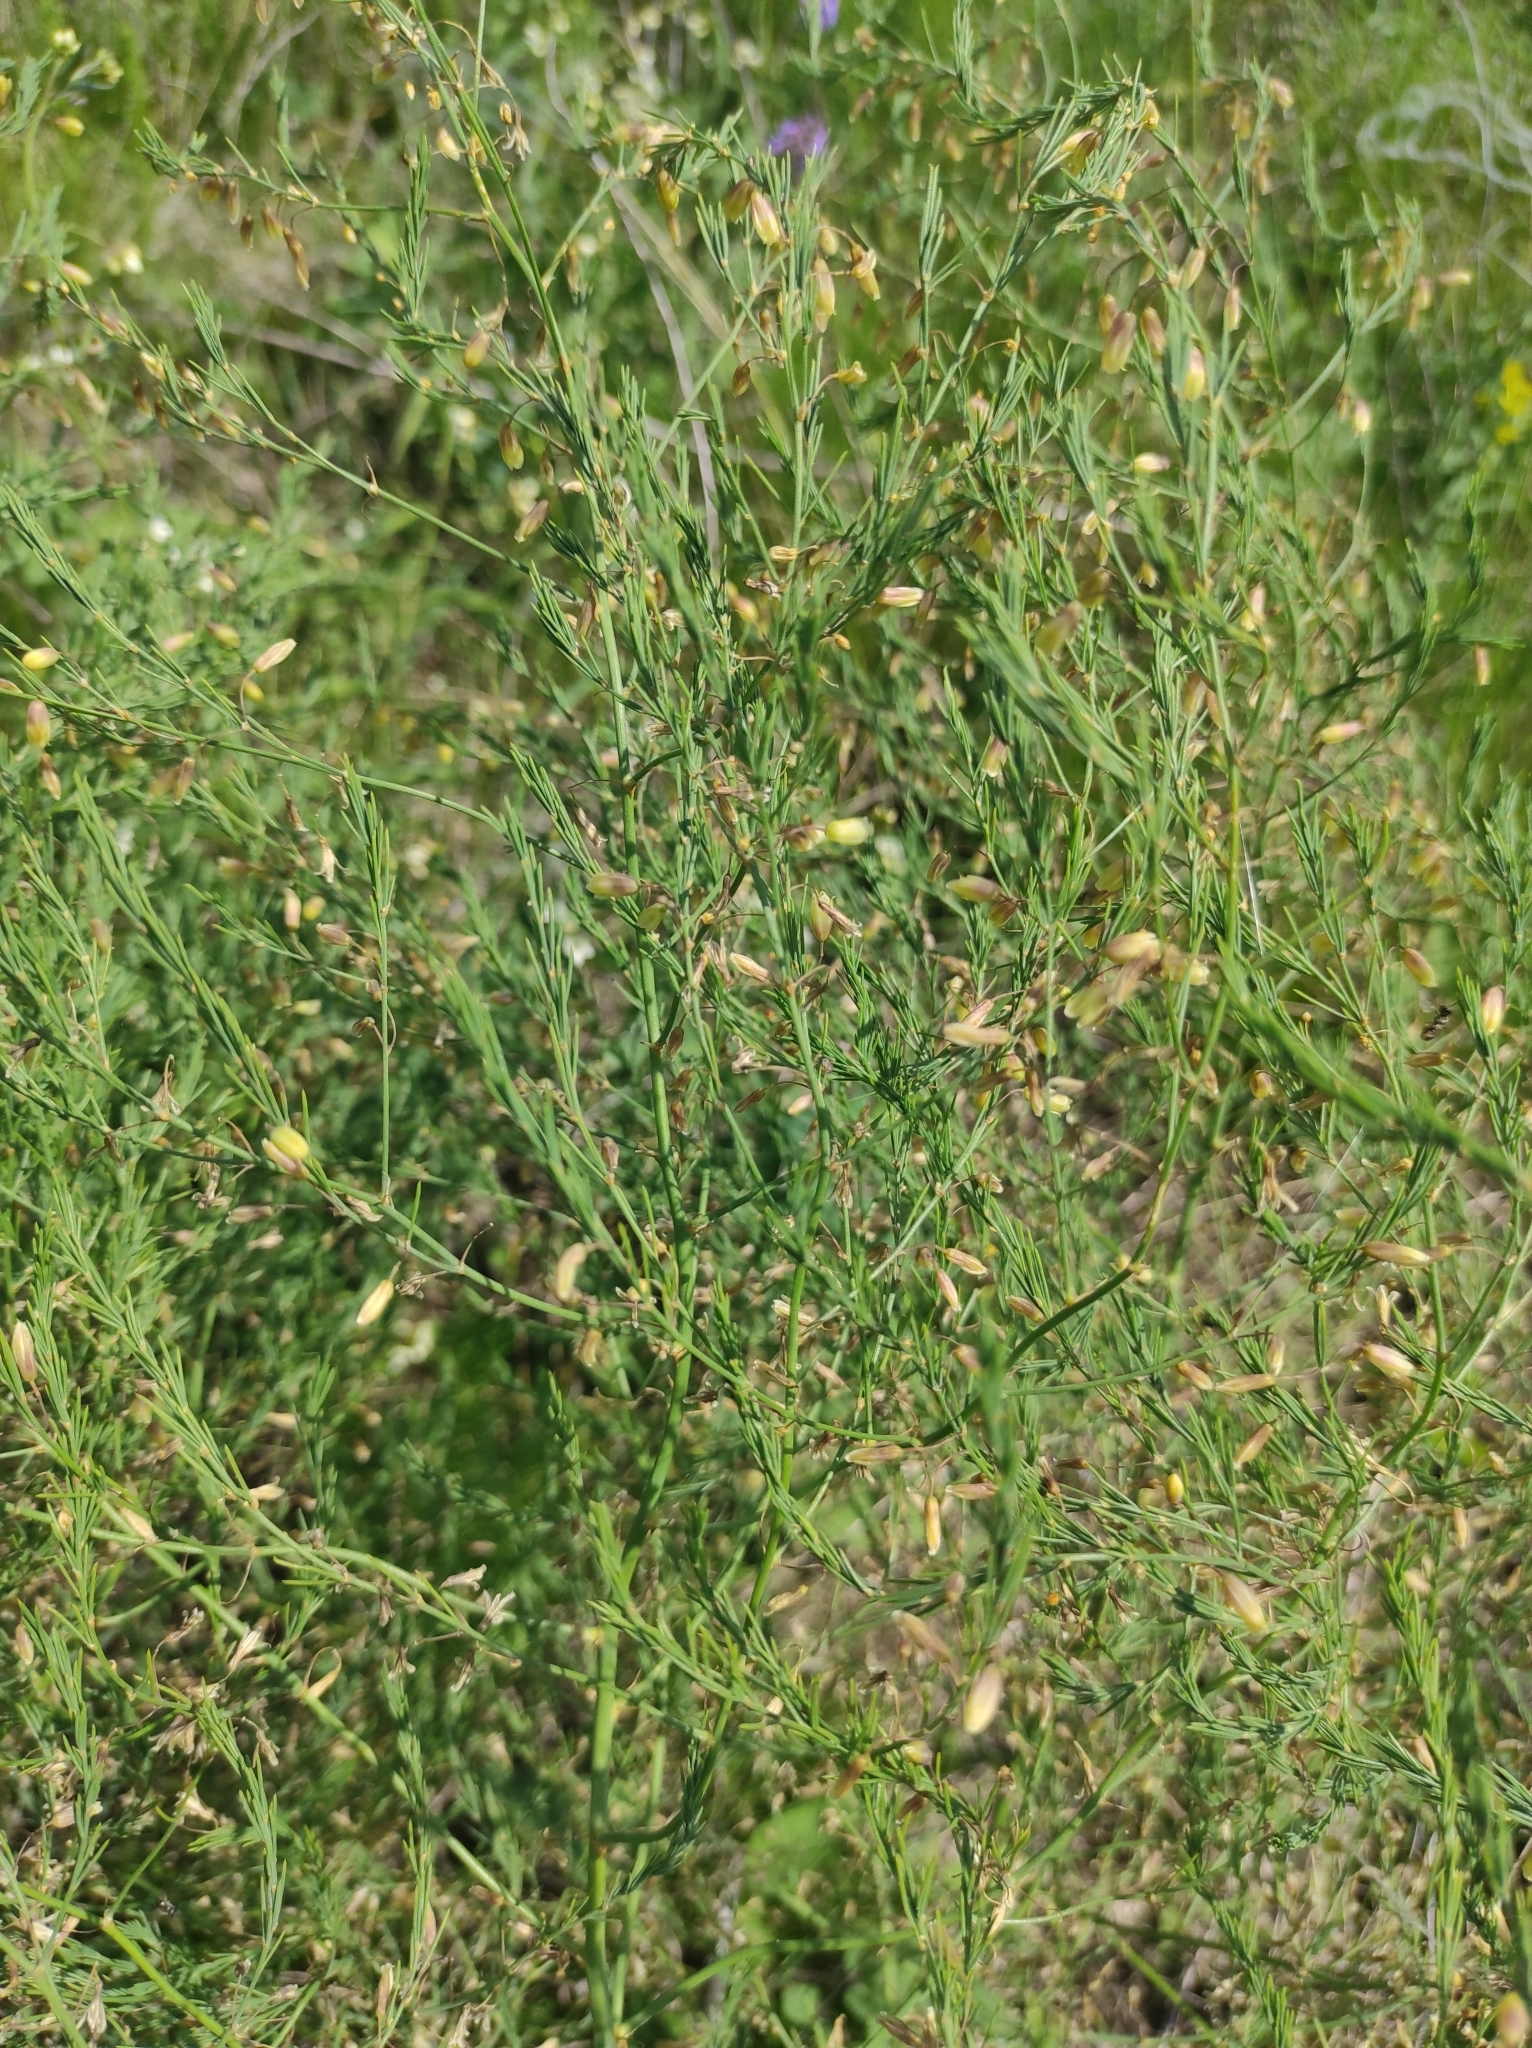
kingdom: Plantae
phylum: Tracheophyta
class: Liliopsida
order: Asparagales
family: Asparagaceae
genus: Asparagus
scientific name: Asparagus officinalis
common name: Garden asparagus
